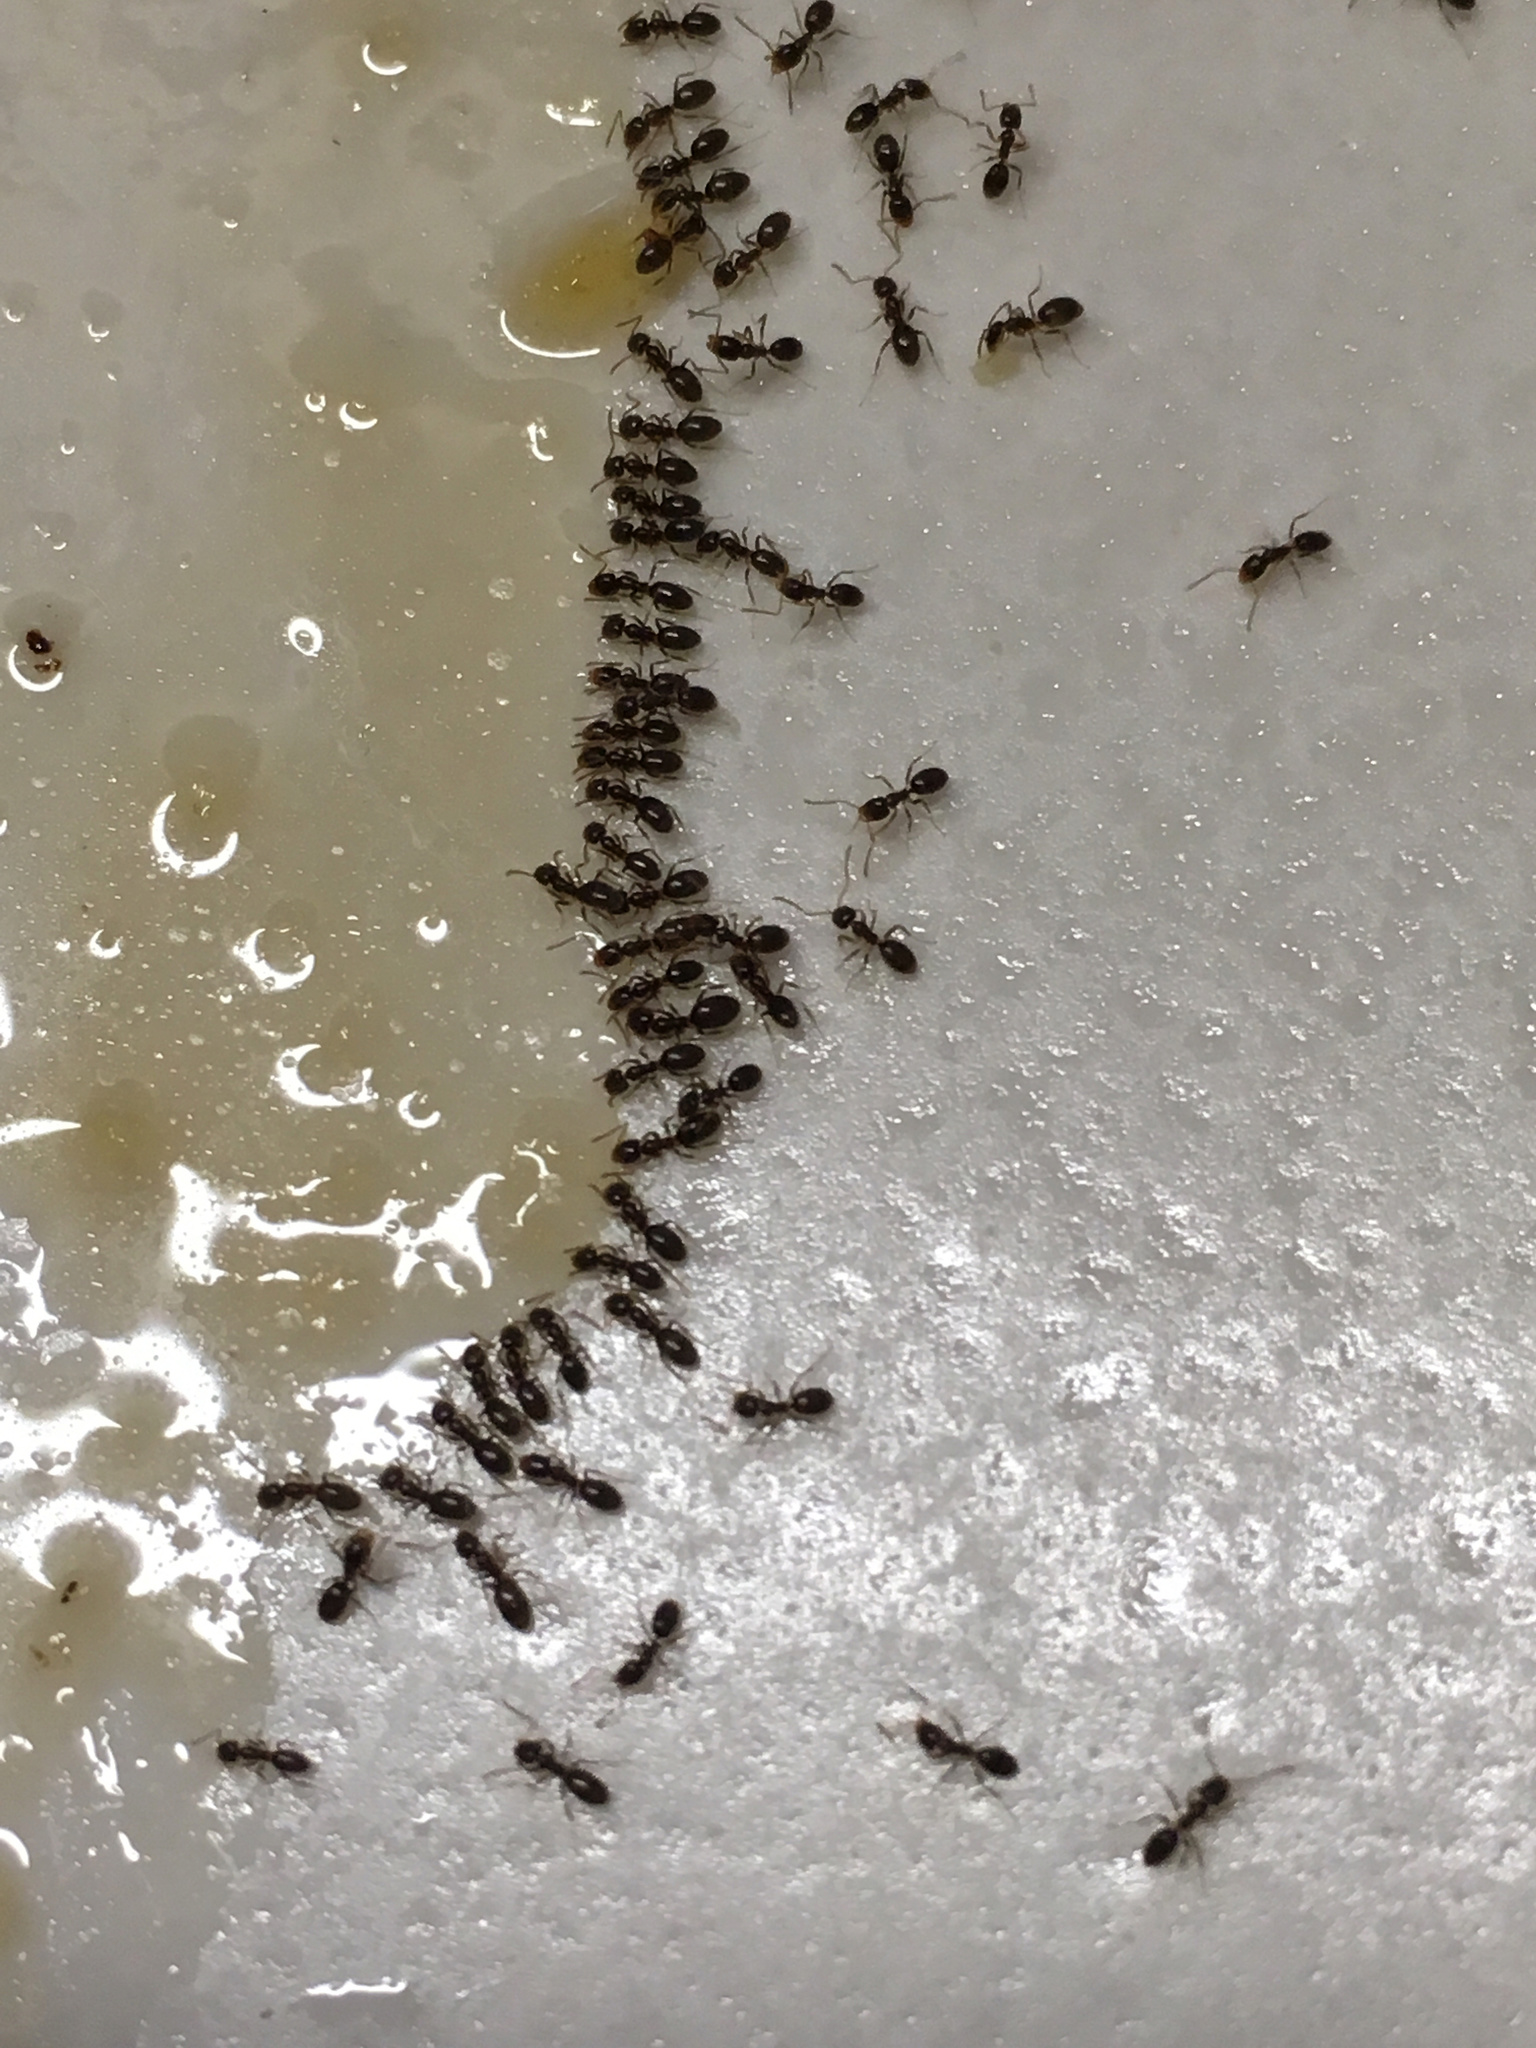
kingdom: Animalia
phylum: Arthropoda
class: Insecta
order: Hymenoptera
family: Formicidae
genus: Doleromyrma
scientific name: Doleromyrma darwiniana
